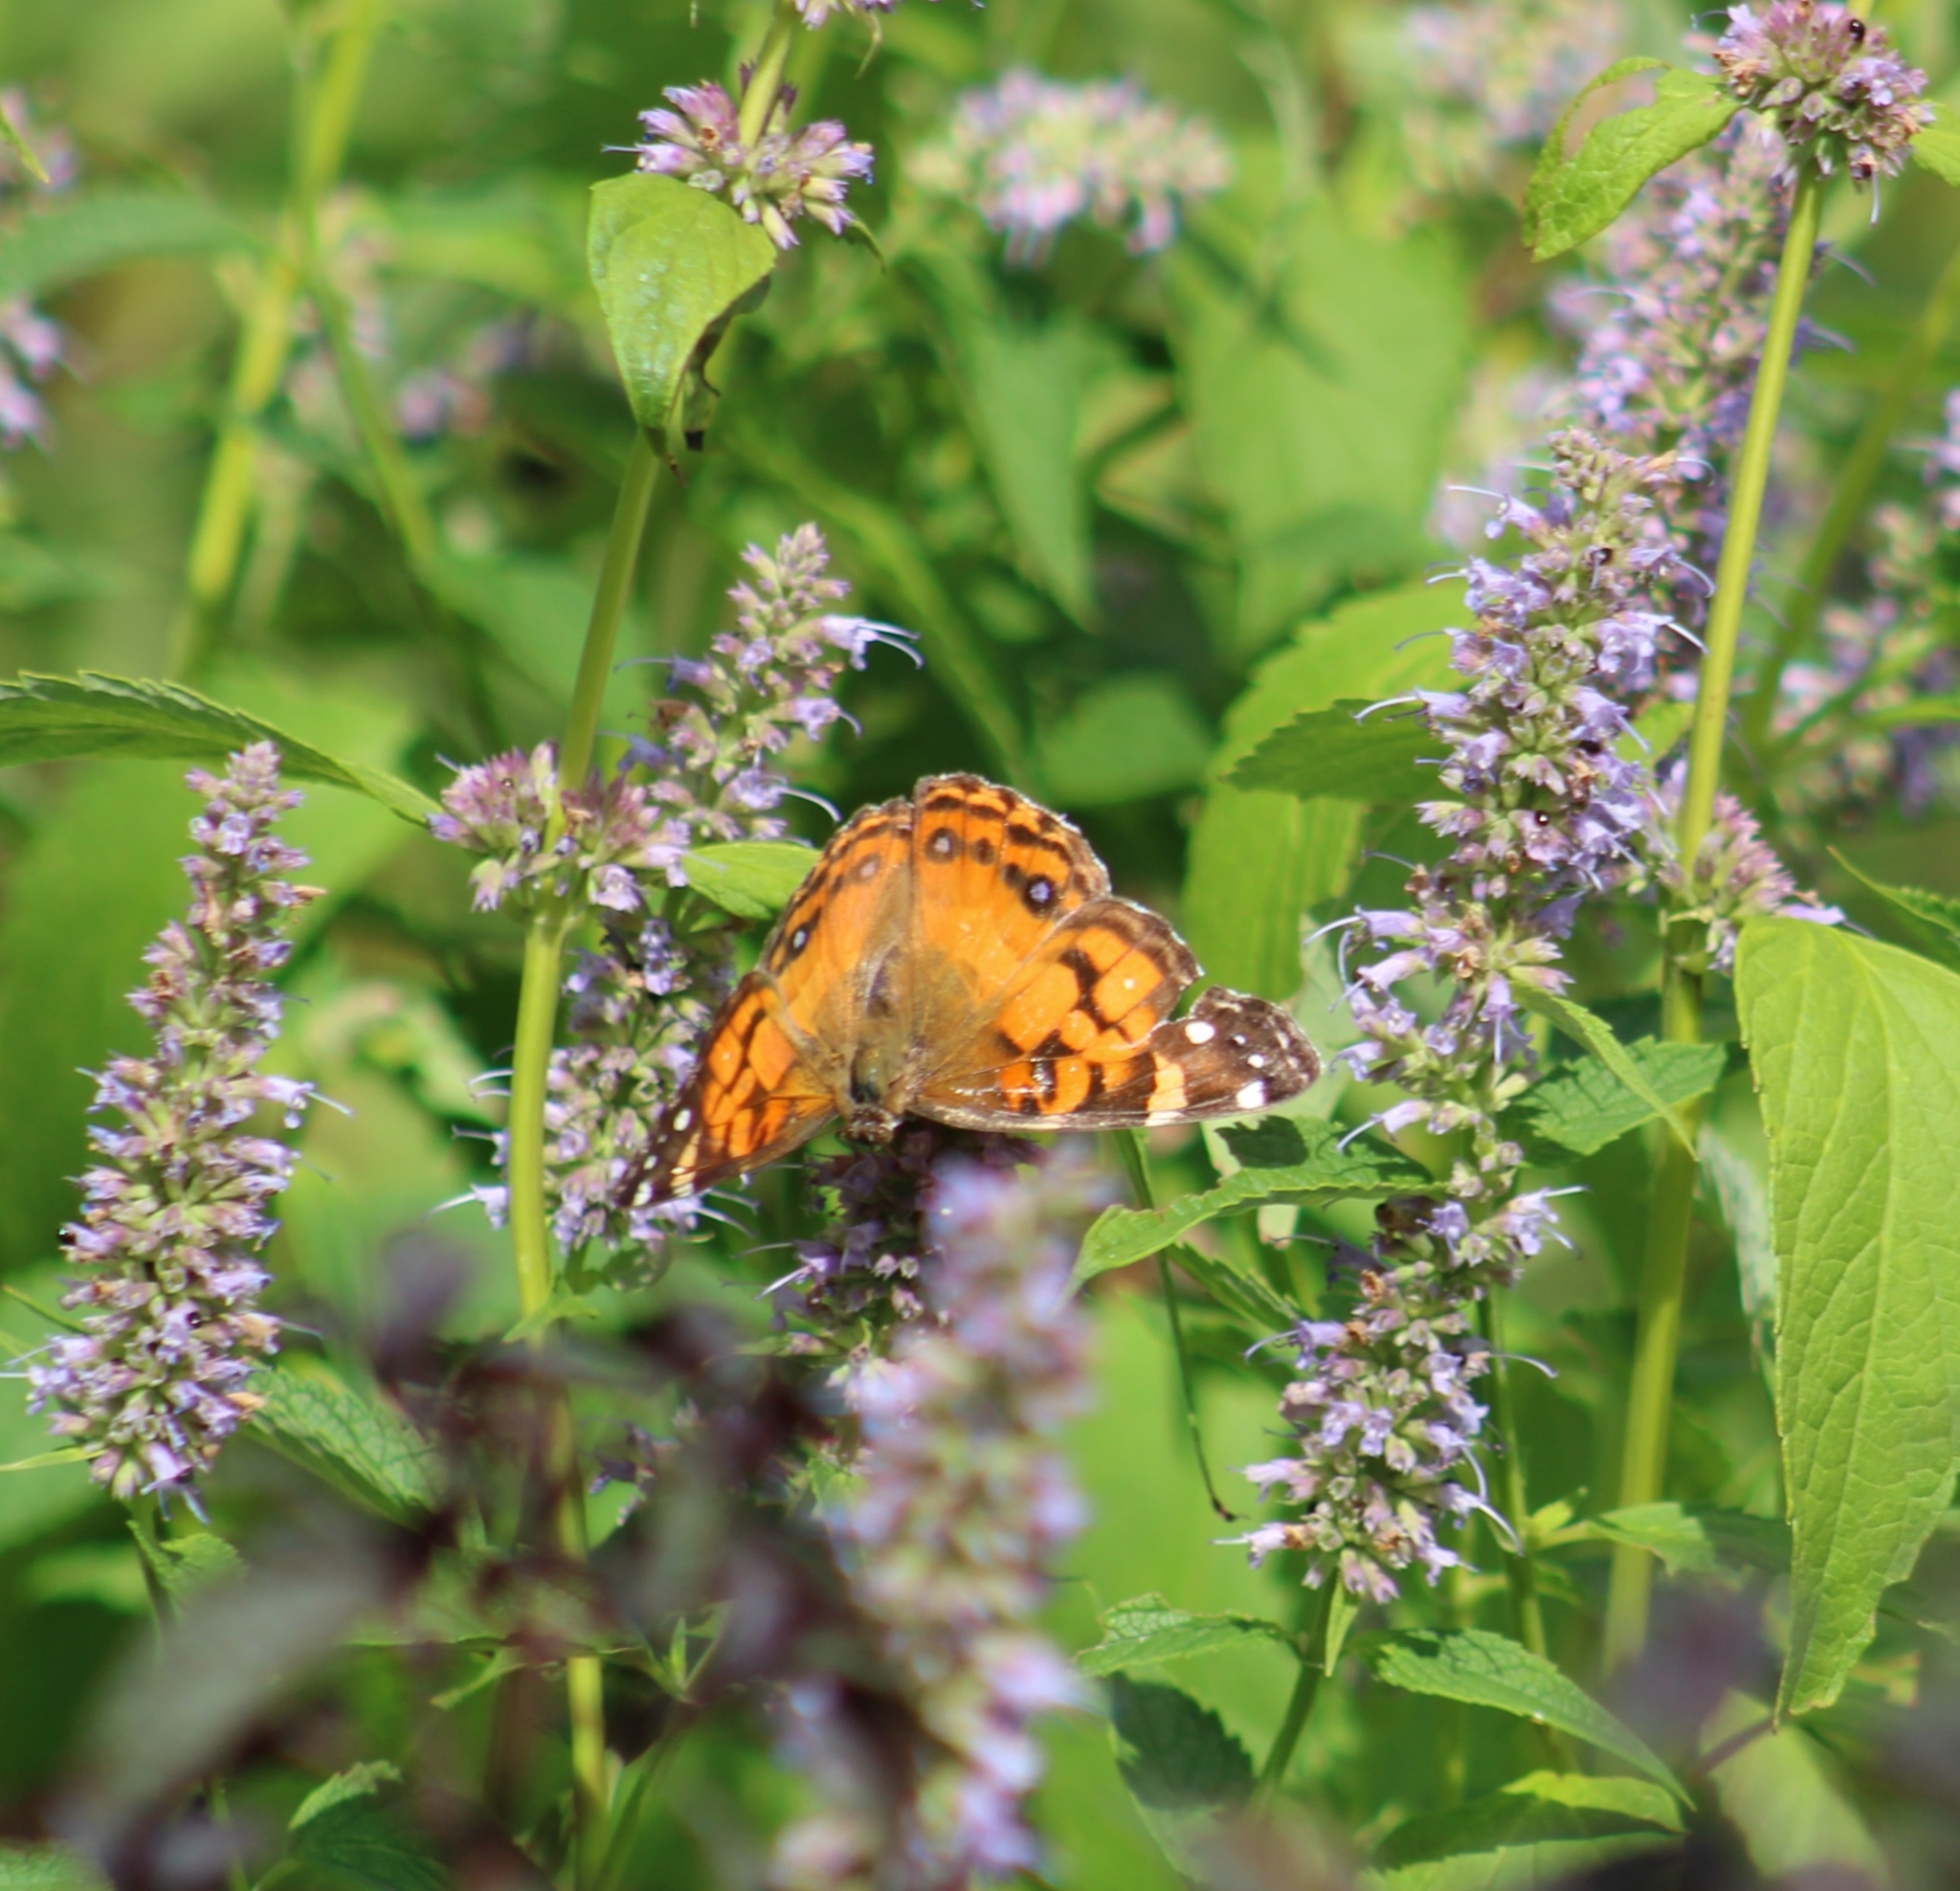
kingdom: Animalia
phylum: Arthropoda
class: Insecta
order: Lepidoptera
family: Nymphalidae
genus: Vanessa
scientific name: Vanessa virginiensis
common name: American lady
